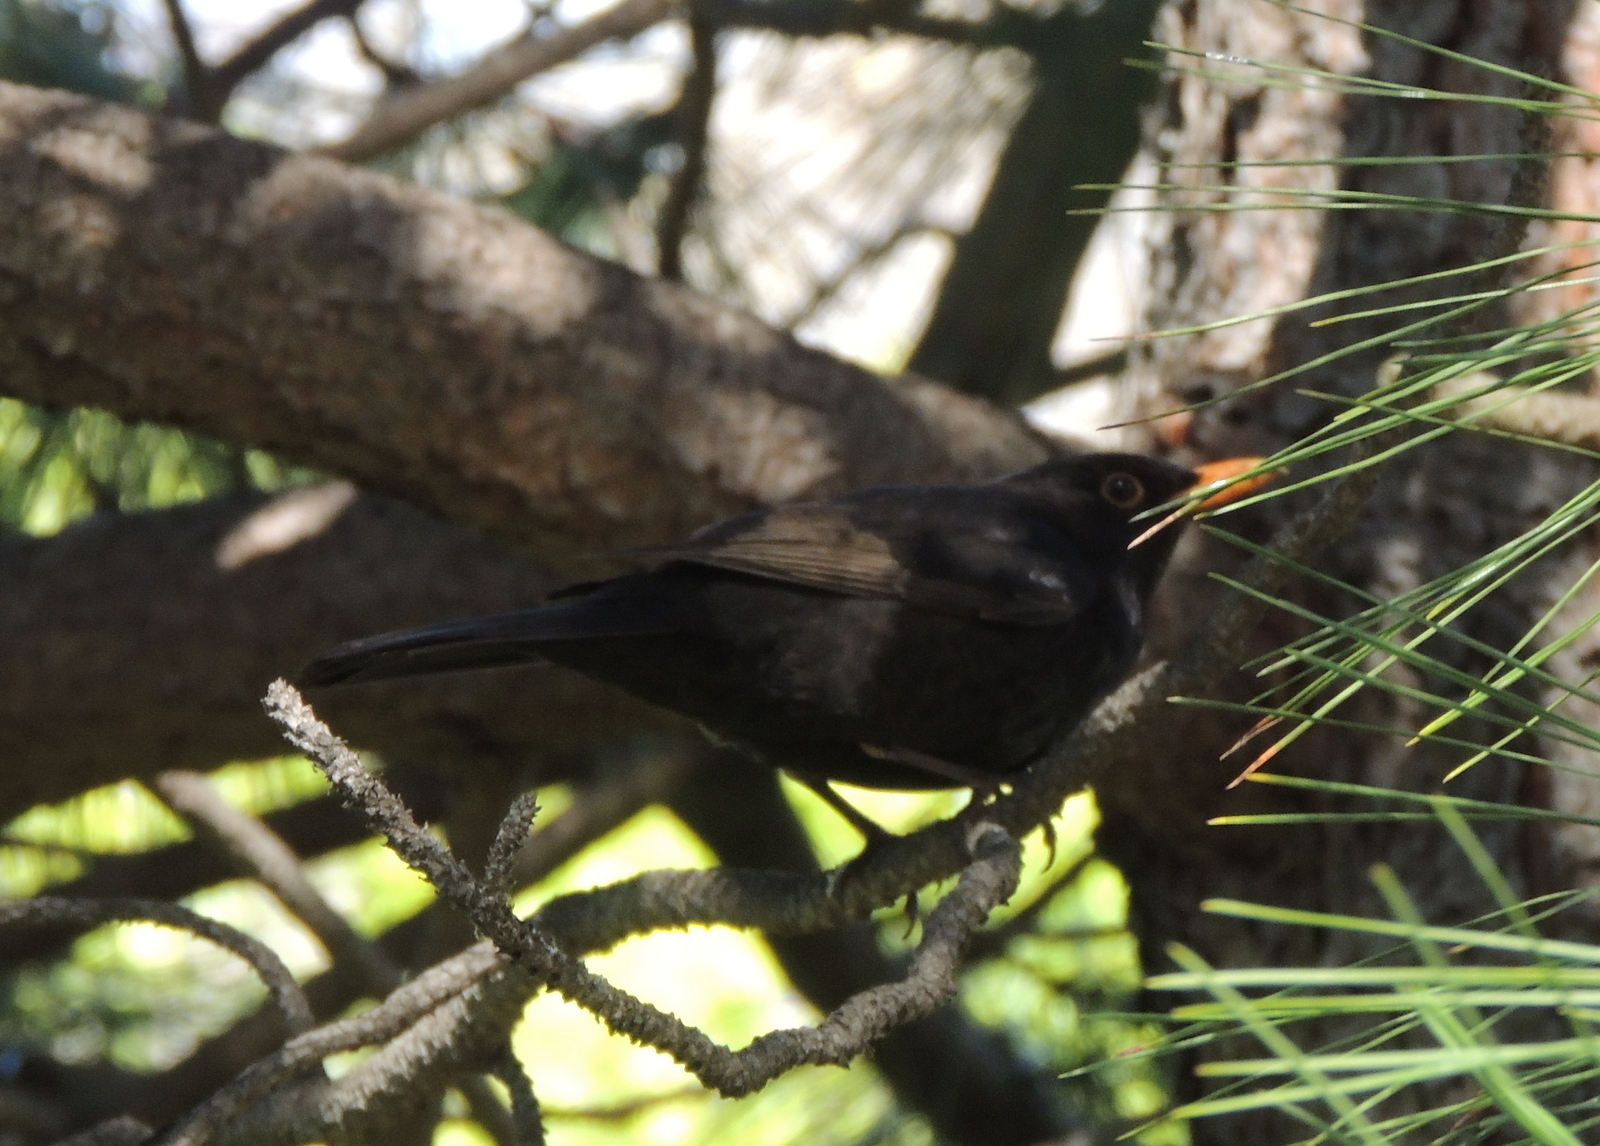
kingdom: Animalia
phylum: Chordata
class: Aves
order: Passeriformes
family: Turdidae
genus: Turdus
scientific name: Turdus merula
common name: Common blackbird
